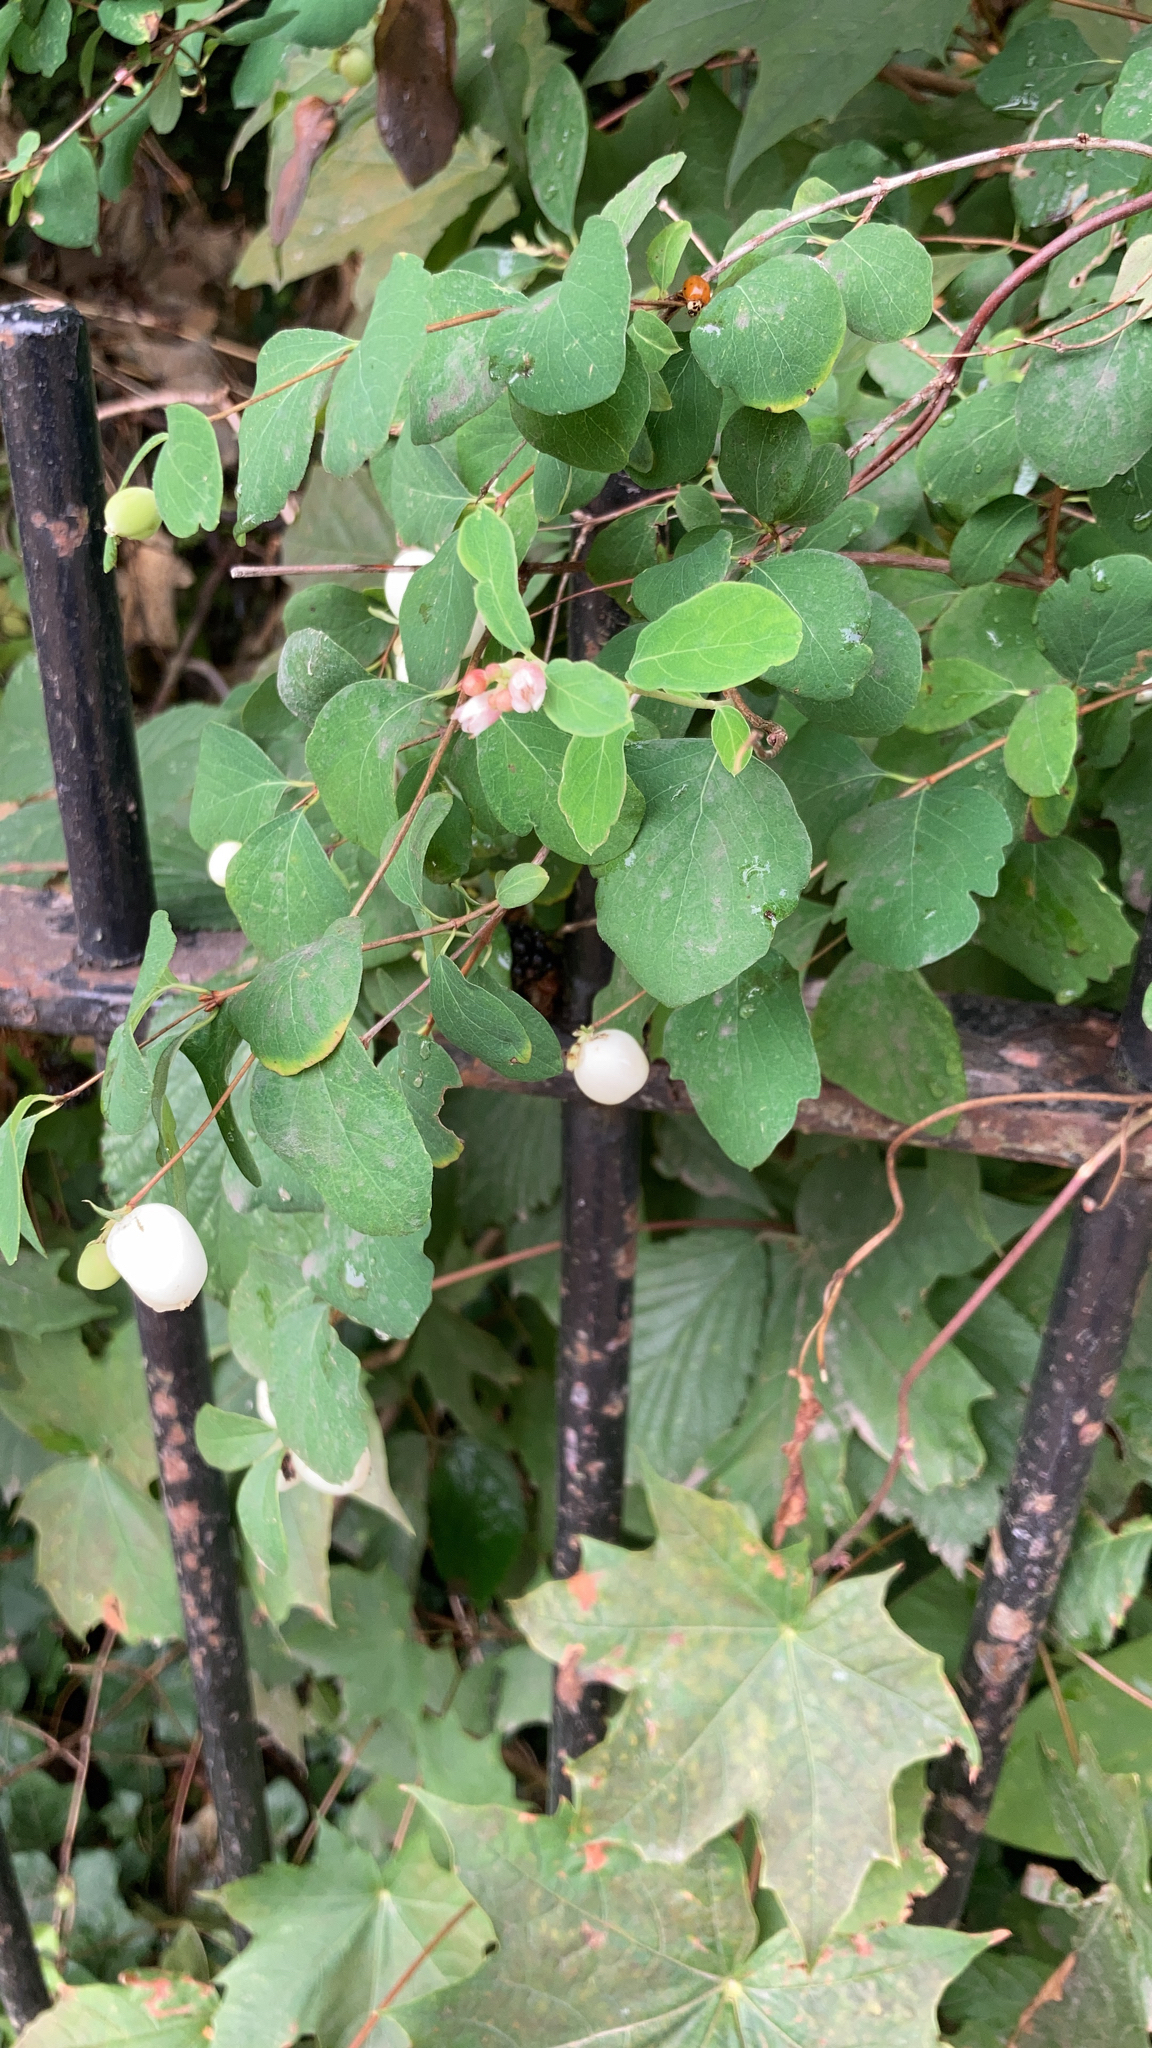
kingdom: Plantae
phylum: Tracheophyta
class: Magnoliopsida
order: Dipsacales
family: Caprifoliaceae
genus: Symphoricarpos
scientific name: Symphoricarpos albus
